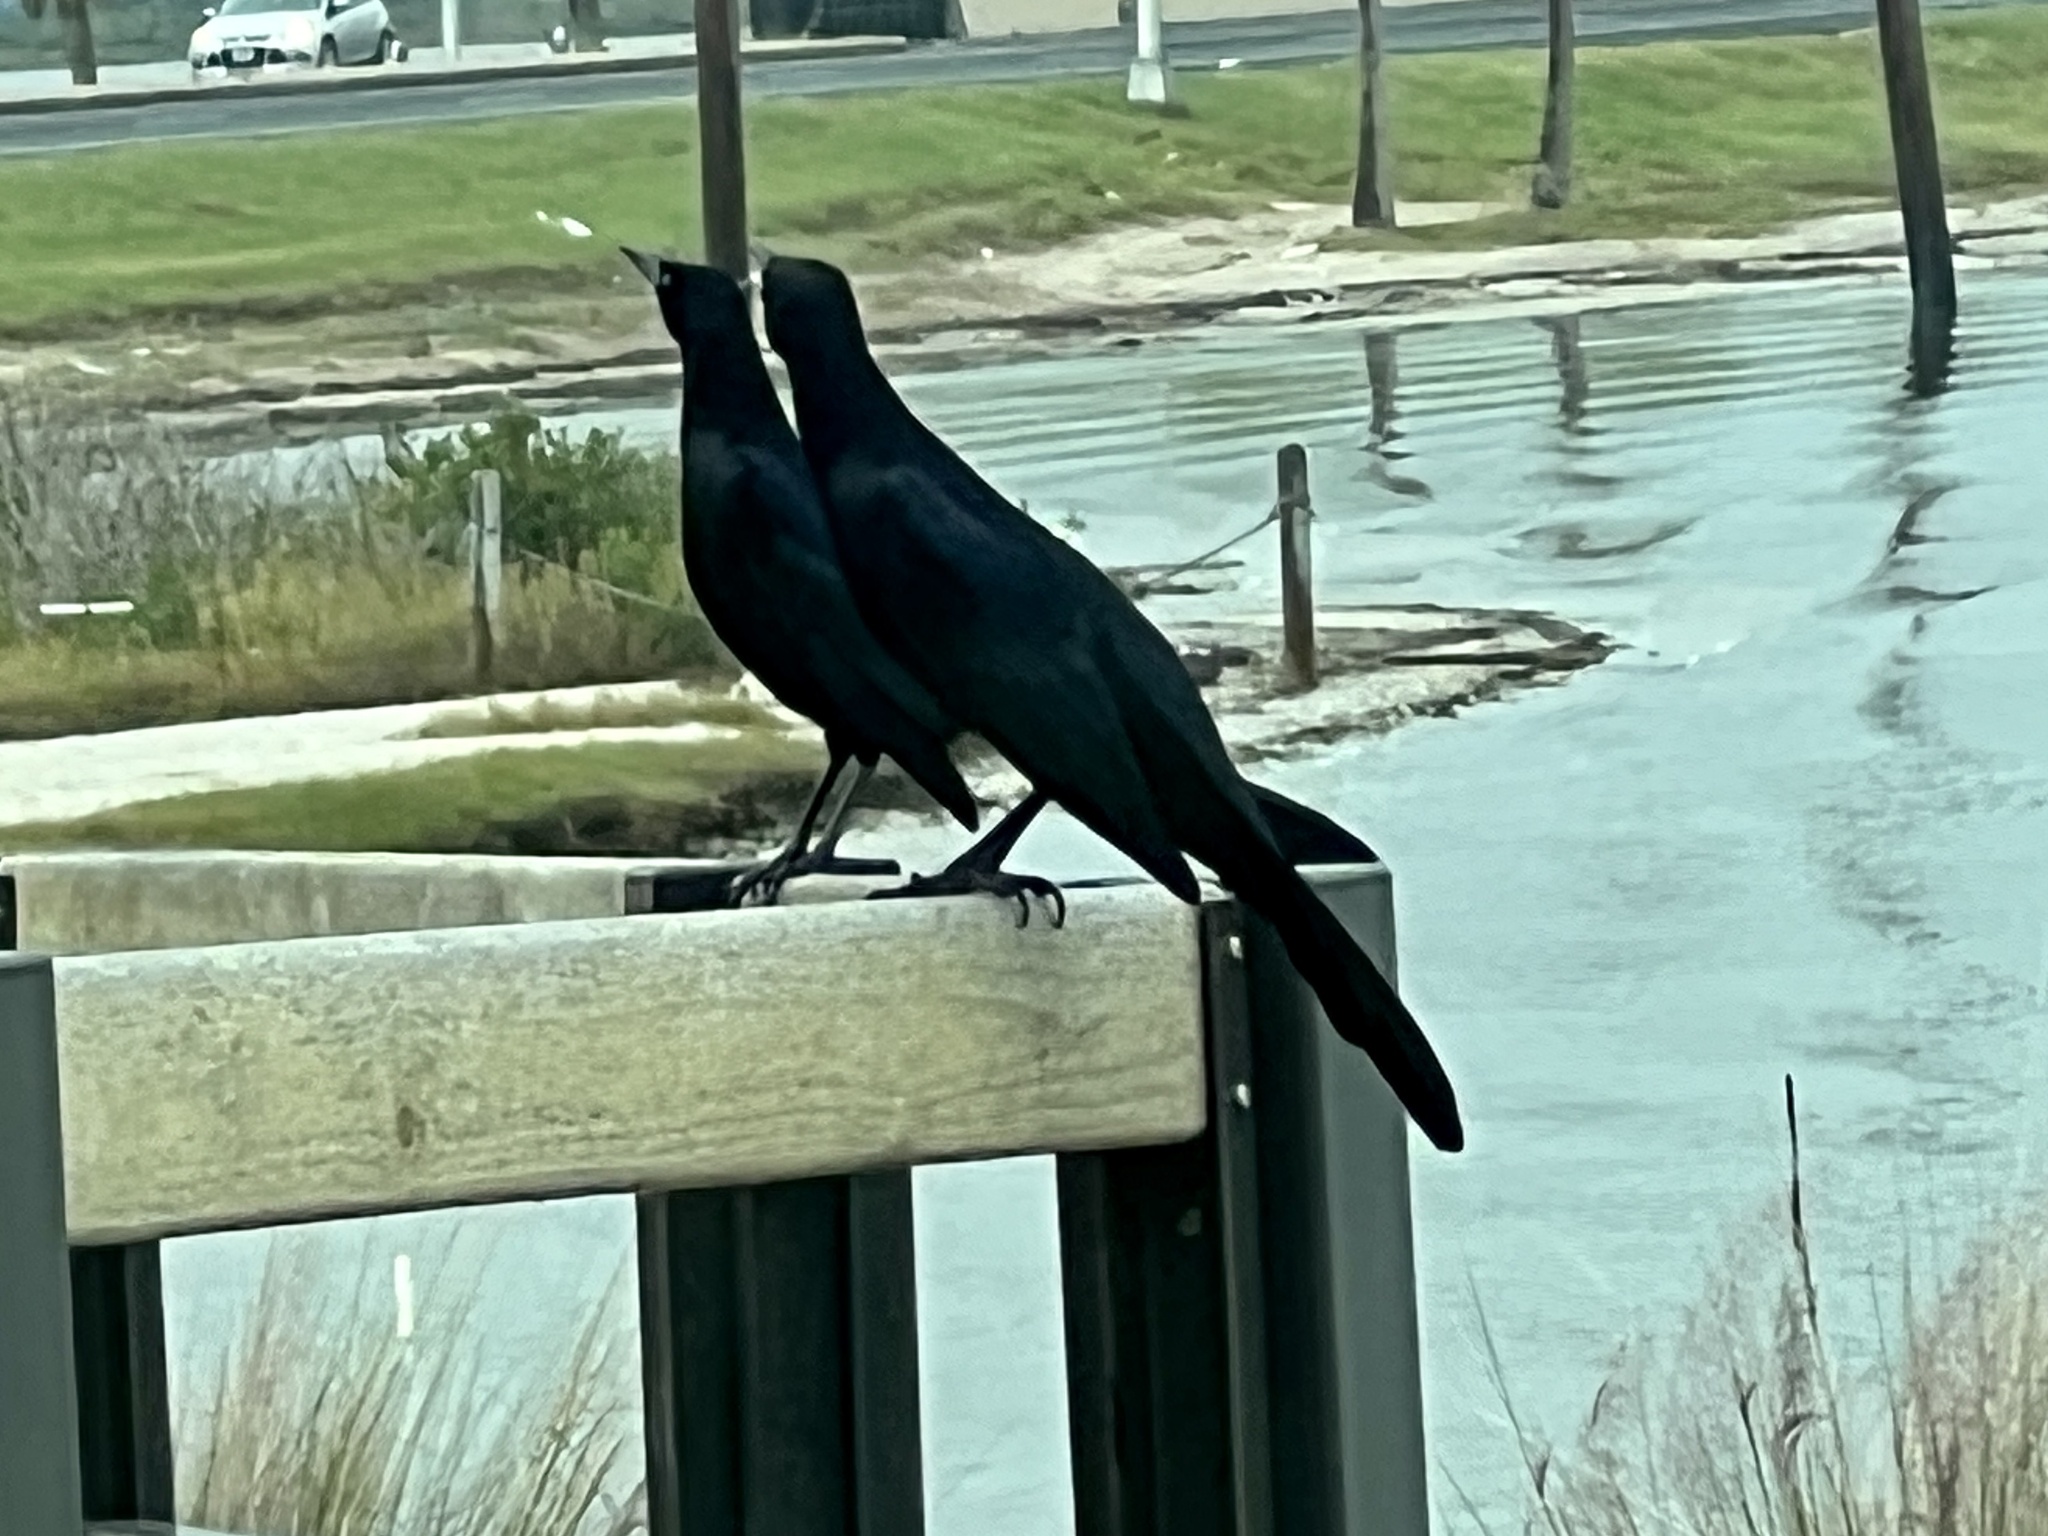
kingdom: Animalia
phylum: Chordata
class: Aves
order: Passeriformes
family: Icteridae
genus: Quiscalus
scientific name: Quiscalus mexicanus
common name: Great-tailed grackle
